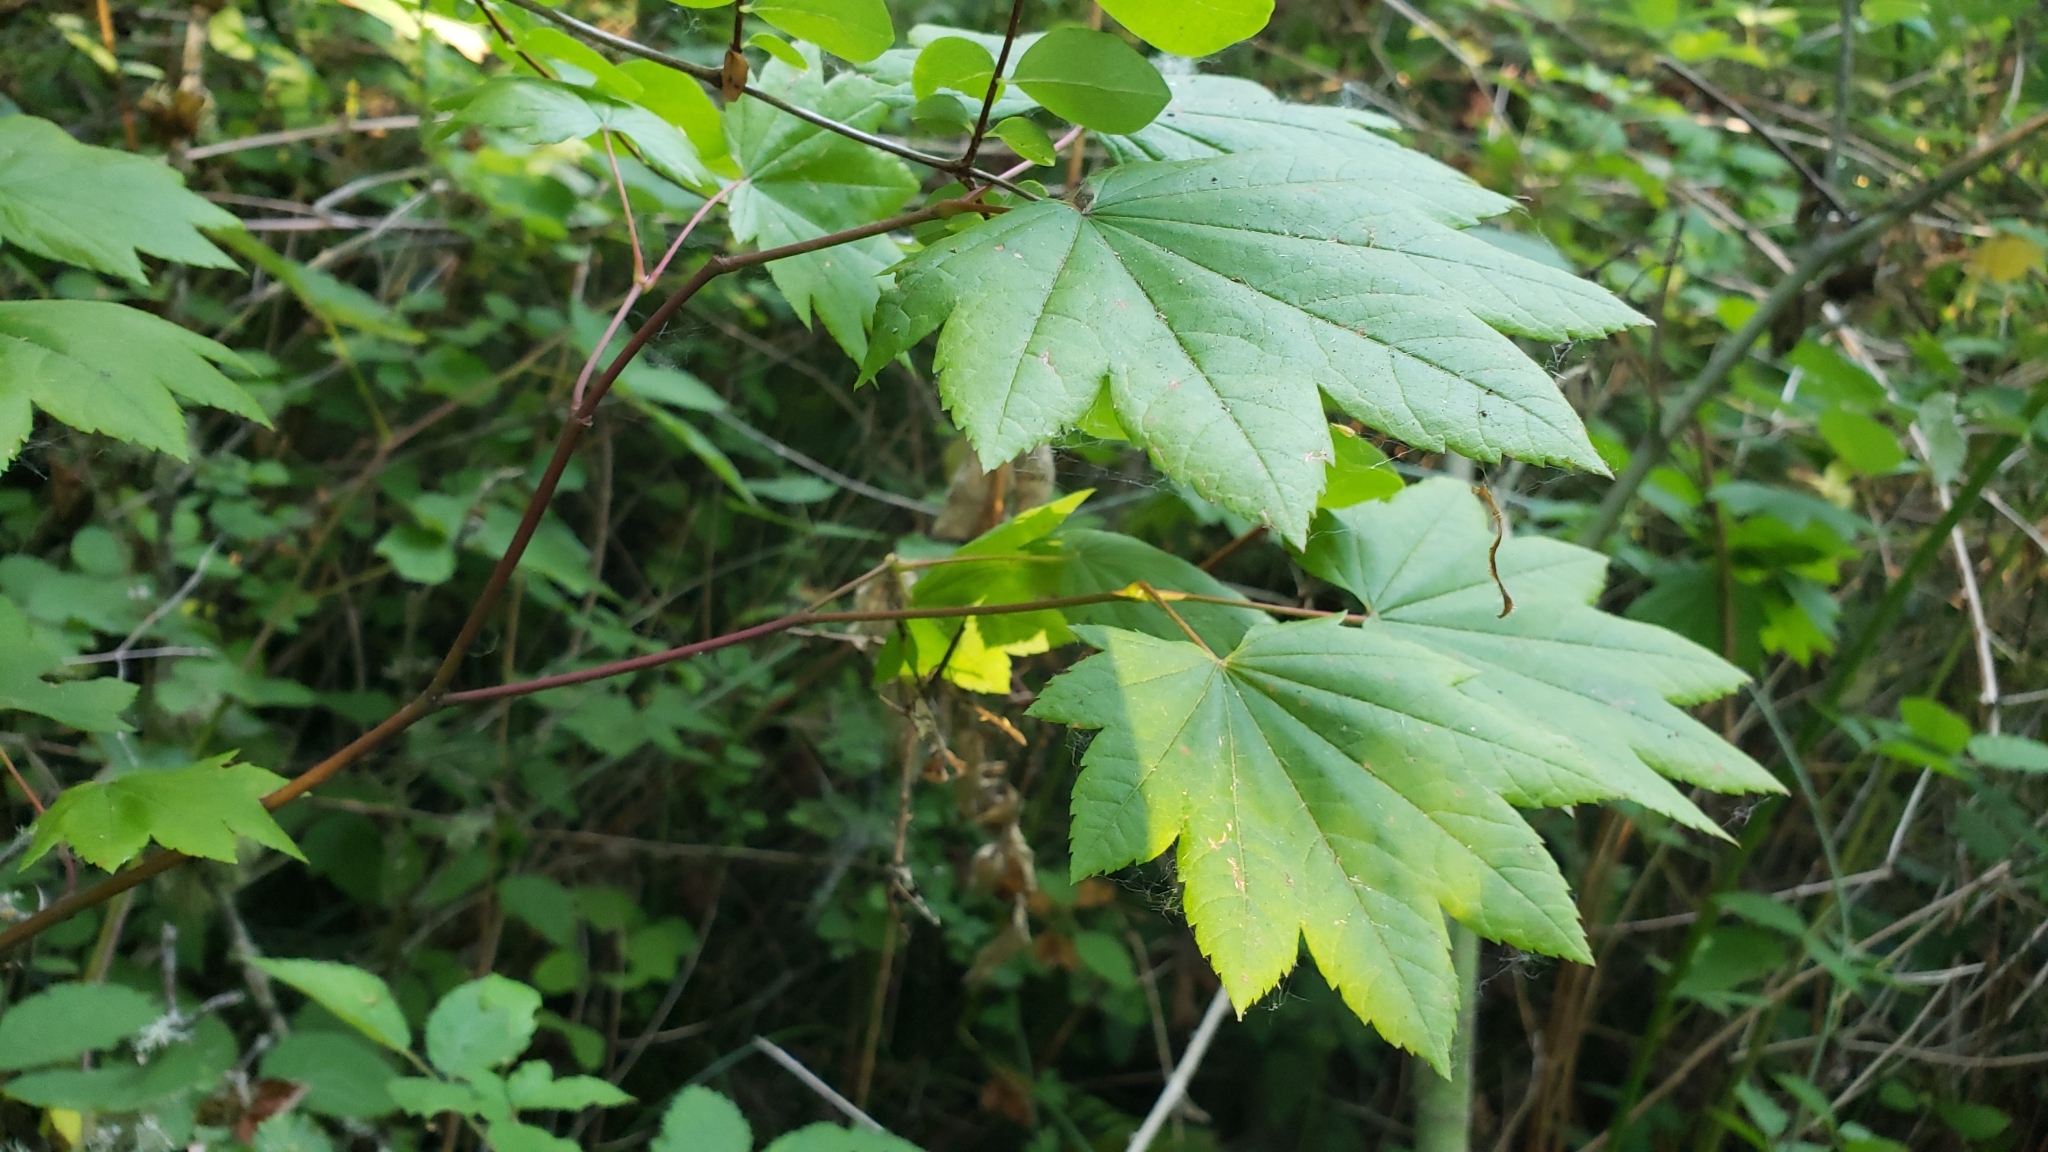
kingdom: Plantae
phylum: Tracheophyta
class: Magnoliopsida
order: Sapindales
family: Sapindaceae
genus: Acer
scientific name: Acer circinatum
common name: Vine maple
